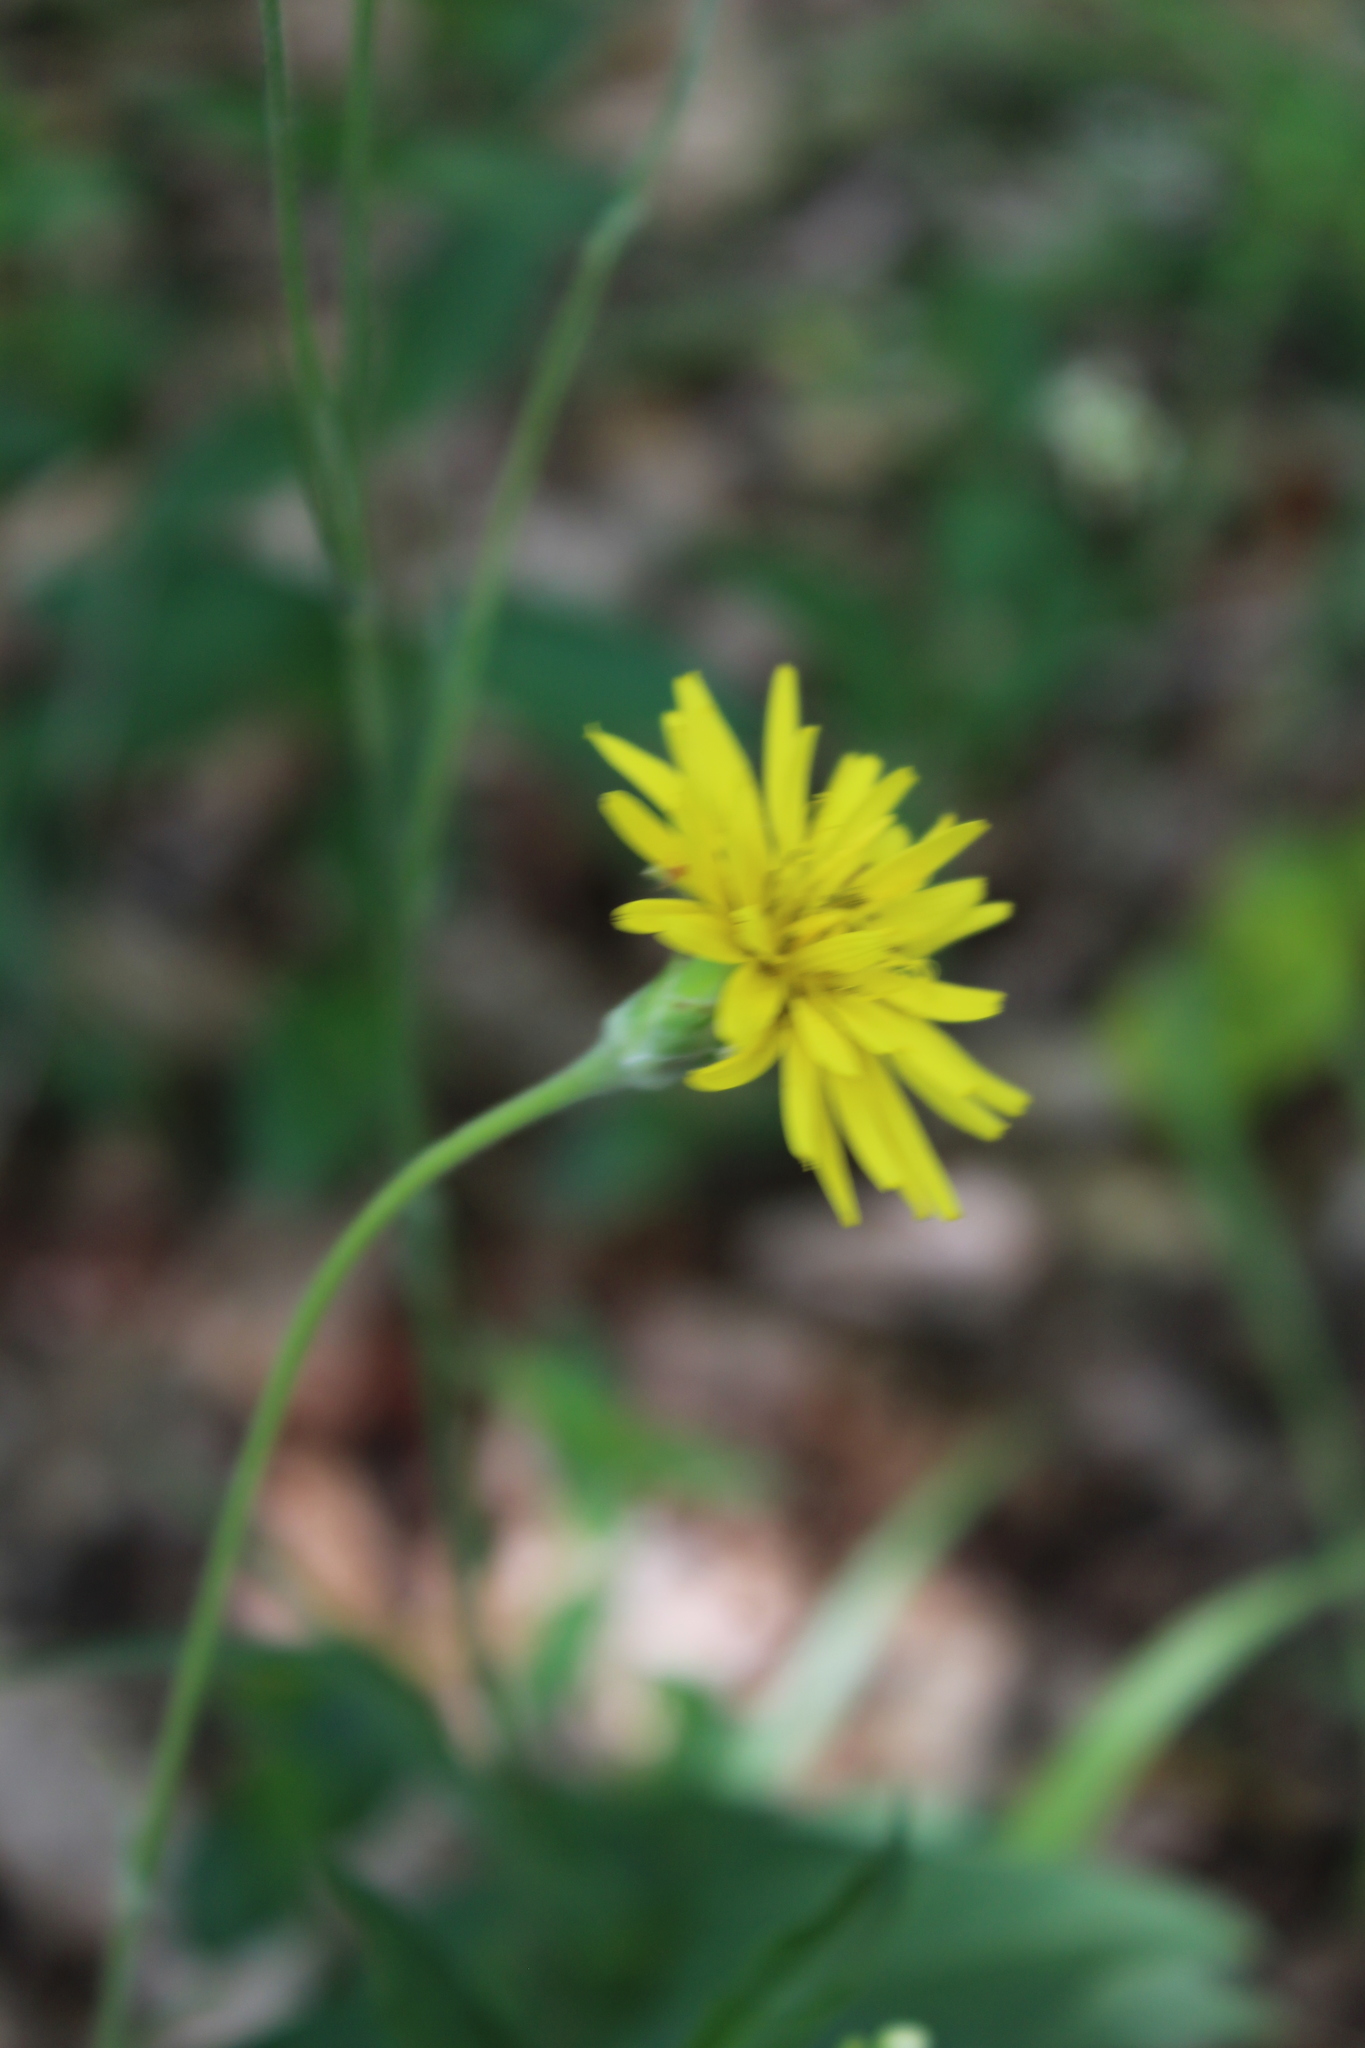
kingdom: Plantae
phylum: Tracheophyta
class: Magnoliopsida
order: Asterales
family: Asteraceae
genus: Pseudopodospermum
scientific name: Pseudopodospermum hispanicum
